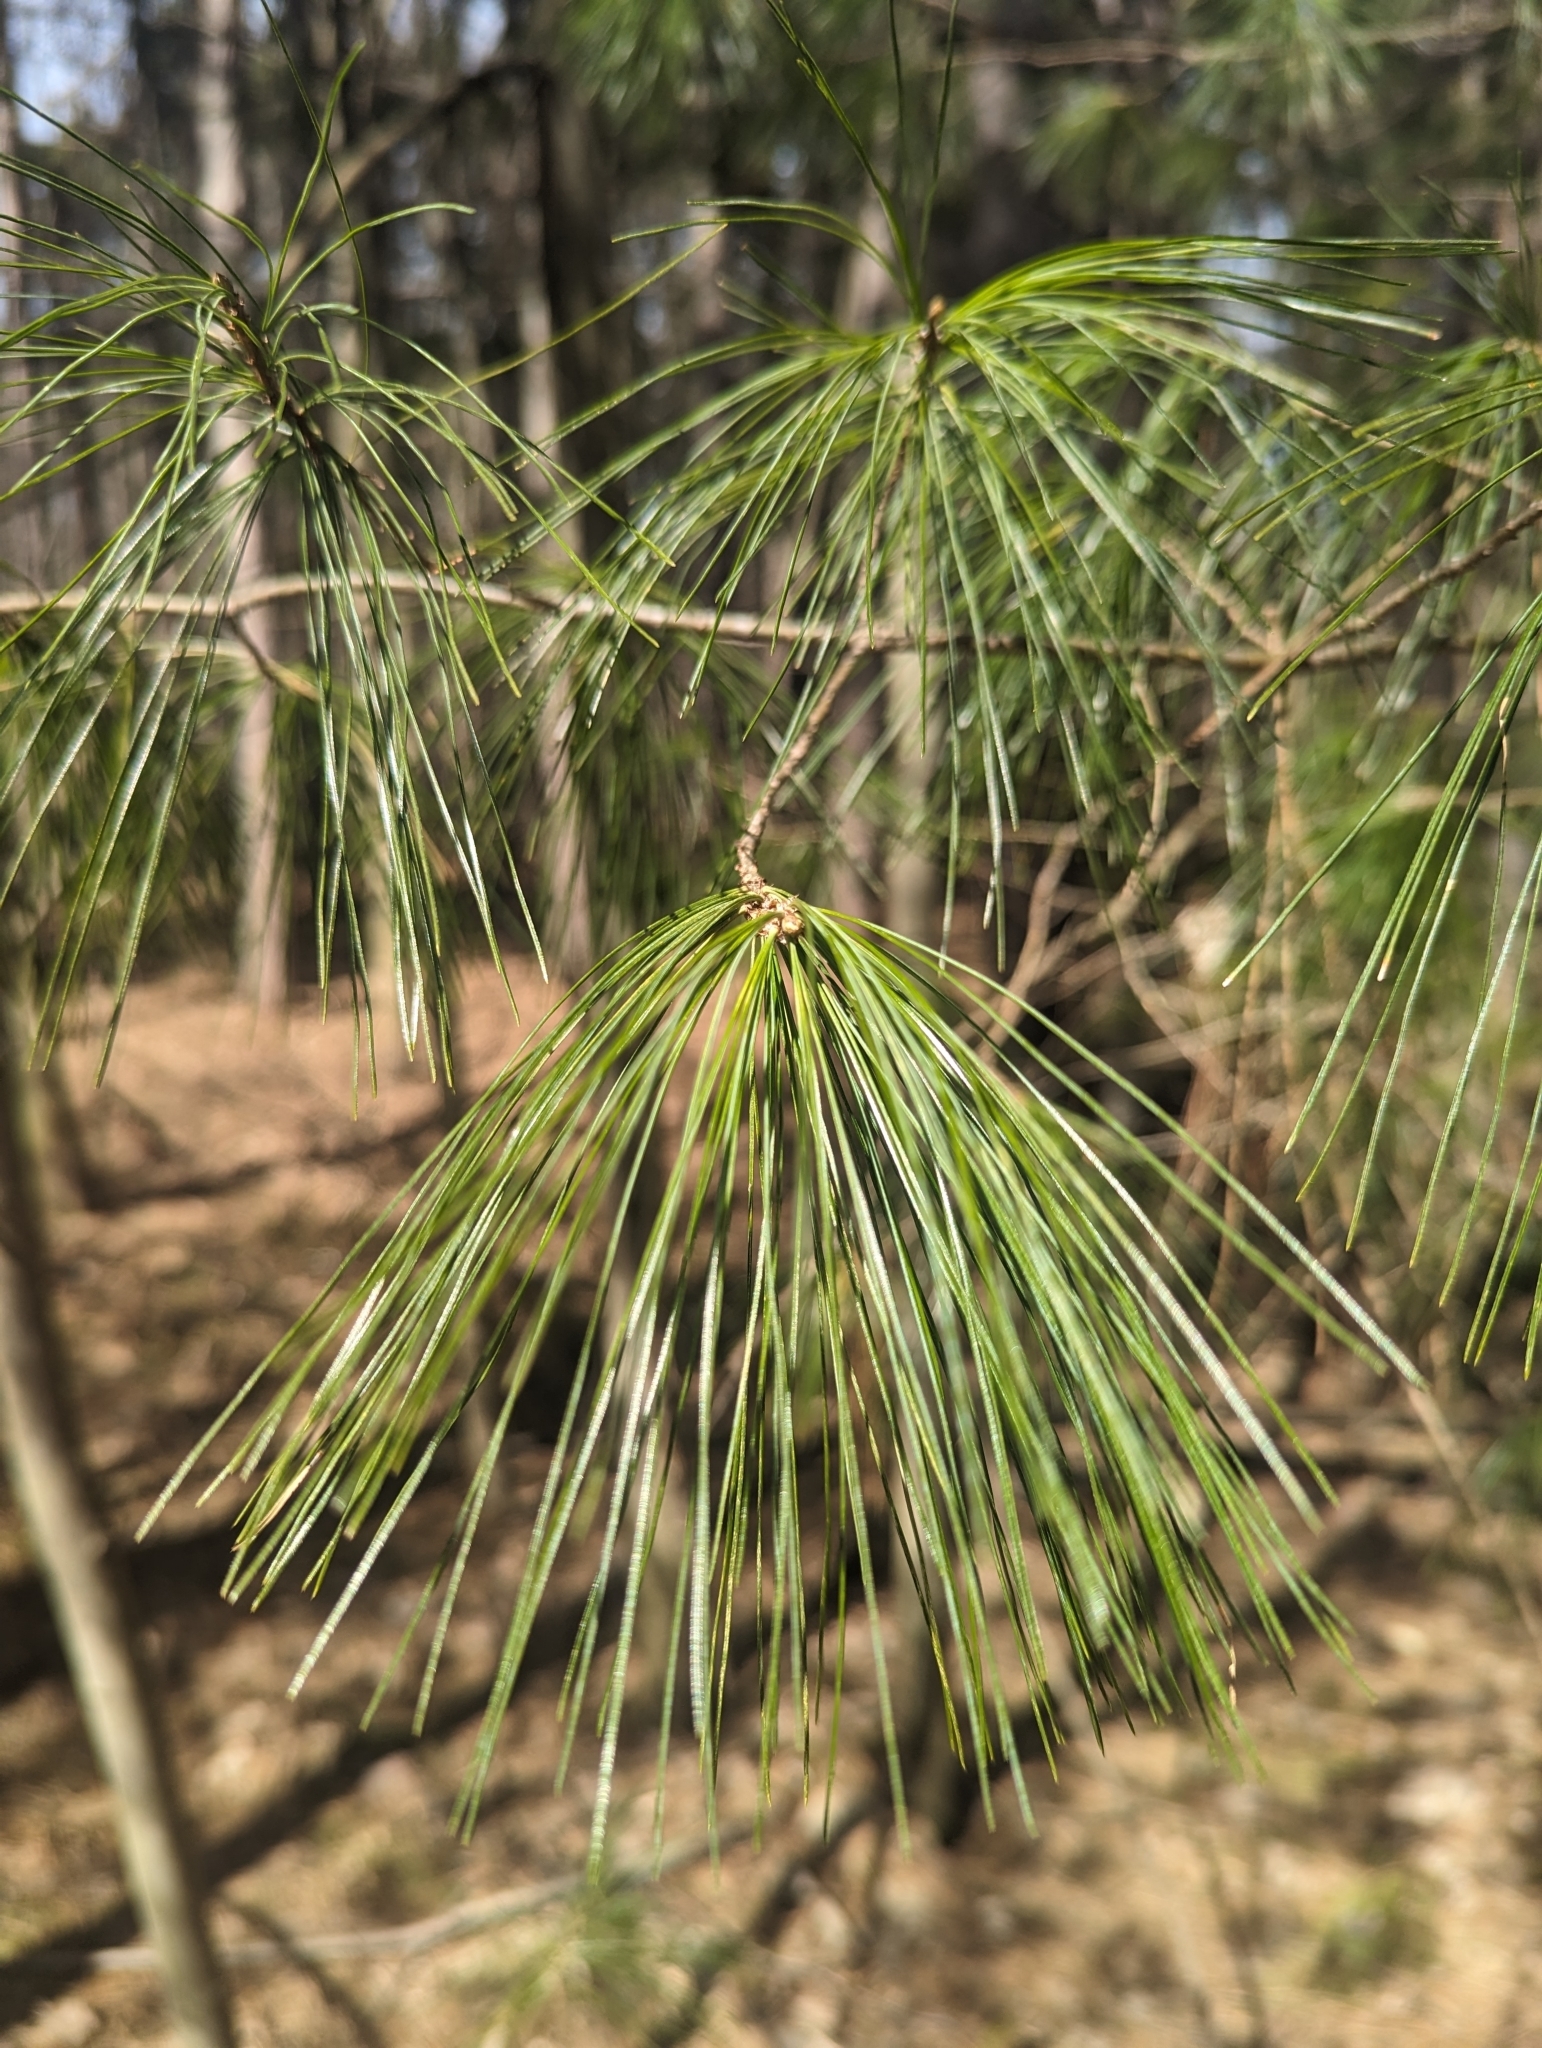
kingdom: Plantae
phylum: Tracheophyta
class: Pinopsida
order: Pinales
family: Pinaceae
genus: Pinus
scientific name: Pinus strobus
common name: Weymouth pine
